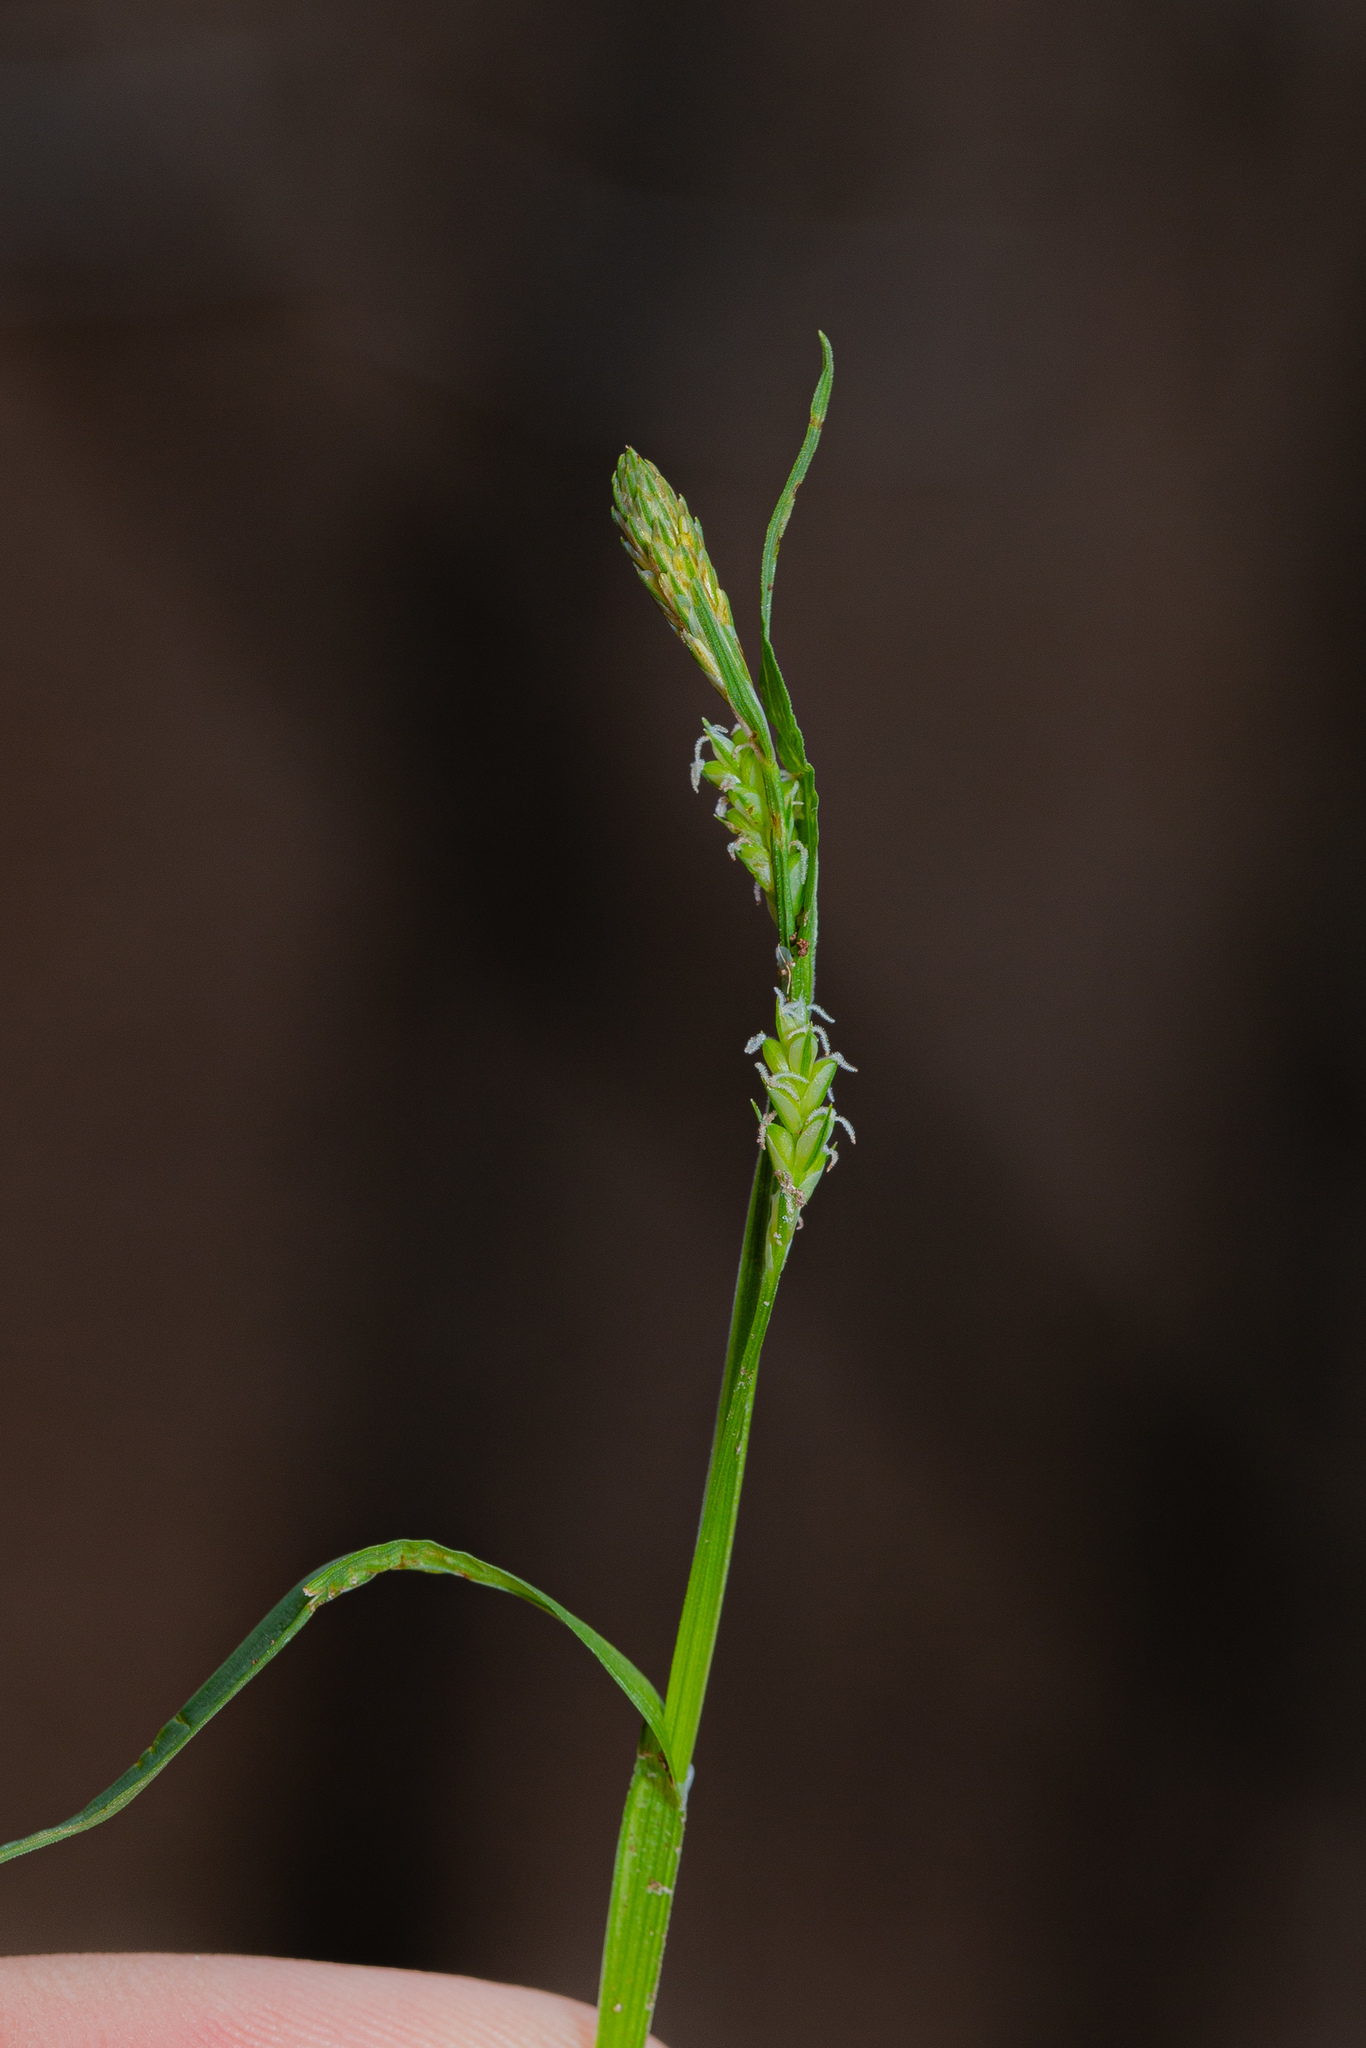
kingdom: Plantae
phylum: Tracheophyta
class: Liliopsida
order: Poales
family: Cyperaceae
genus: Carex
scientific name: Carex blanda
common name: Bland sedge
